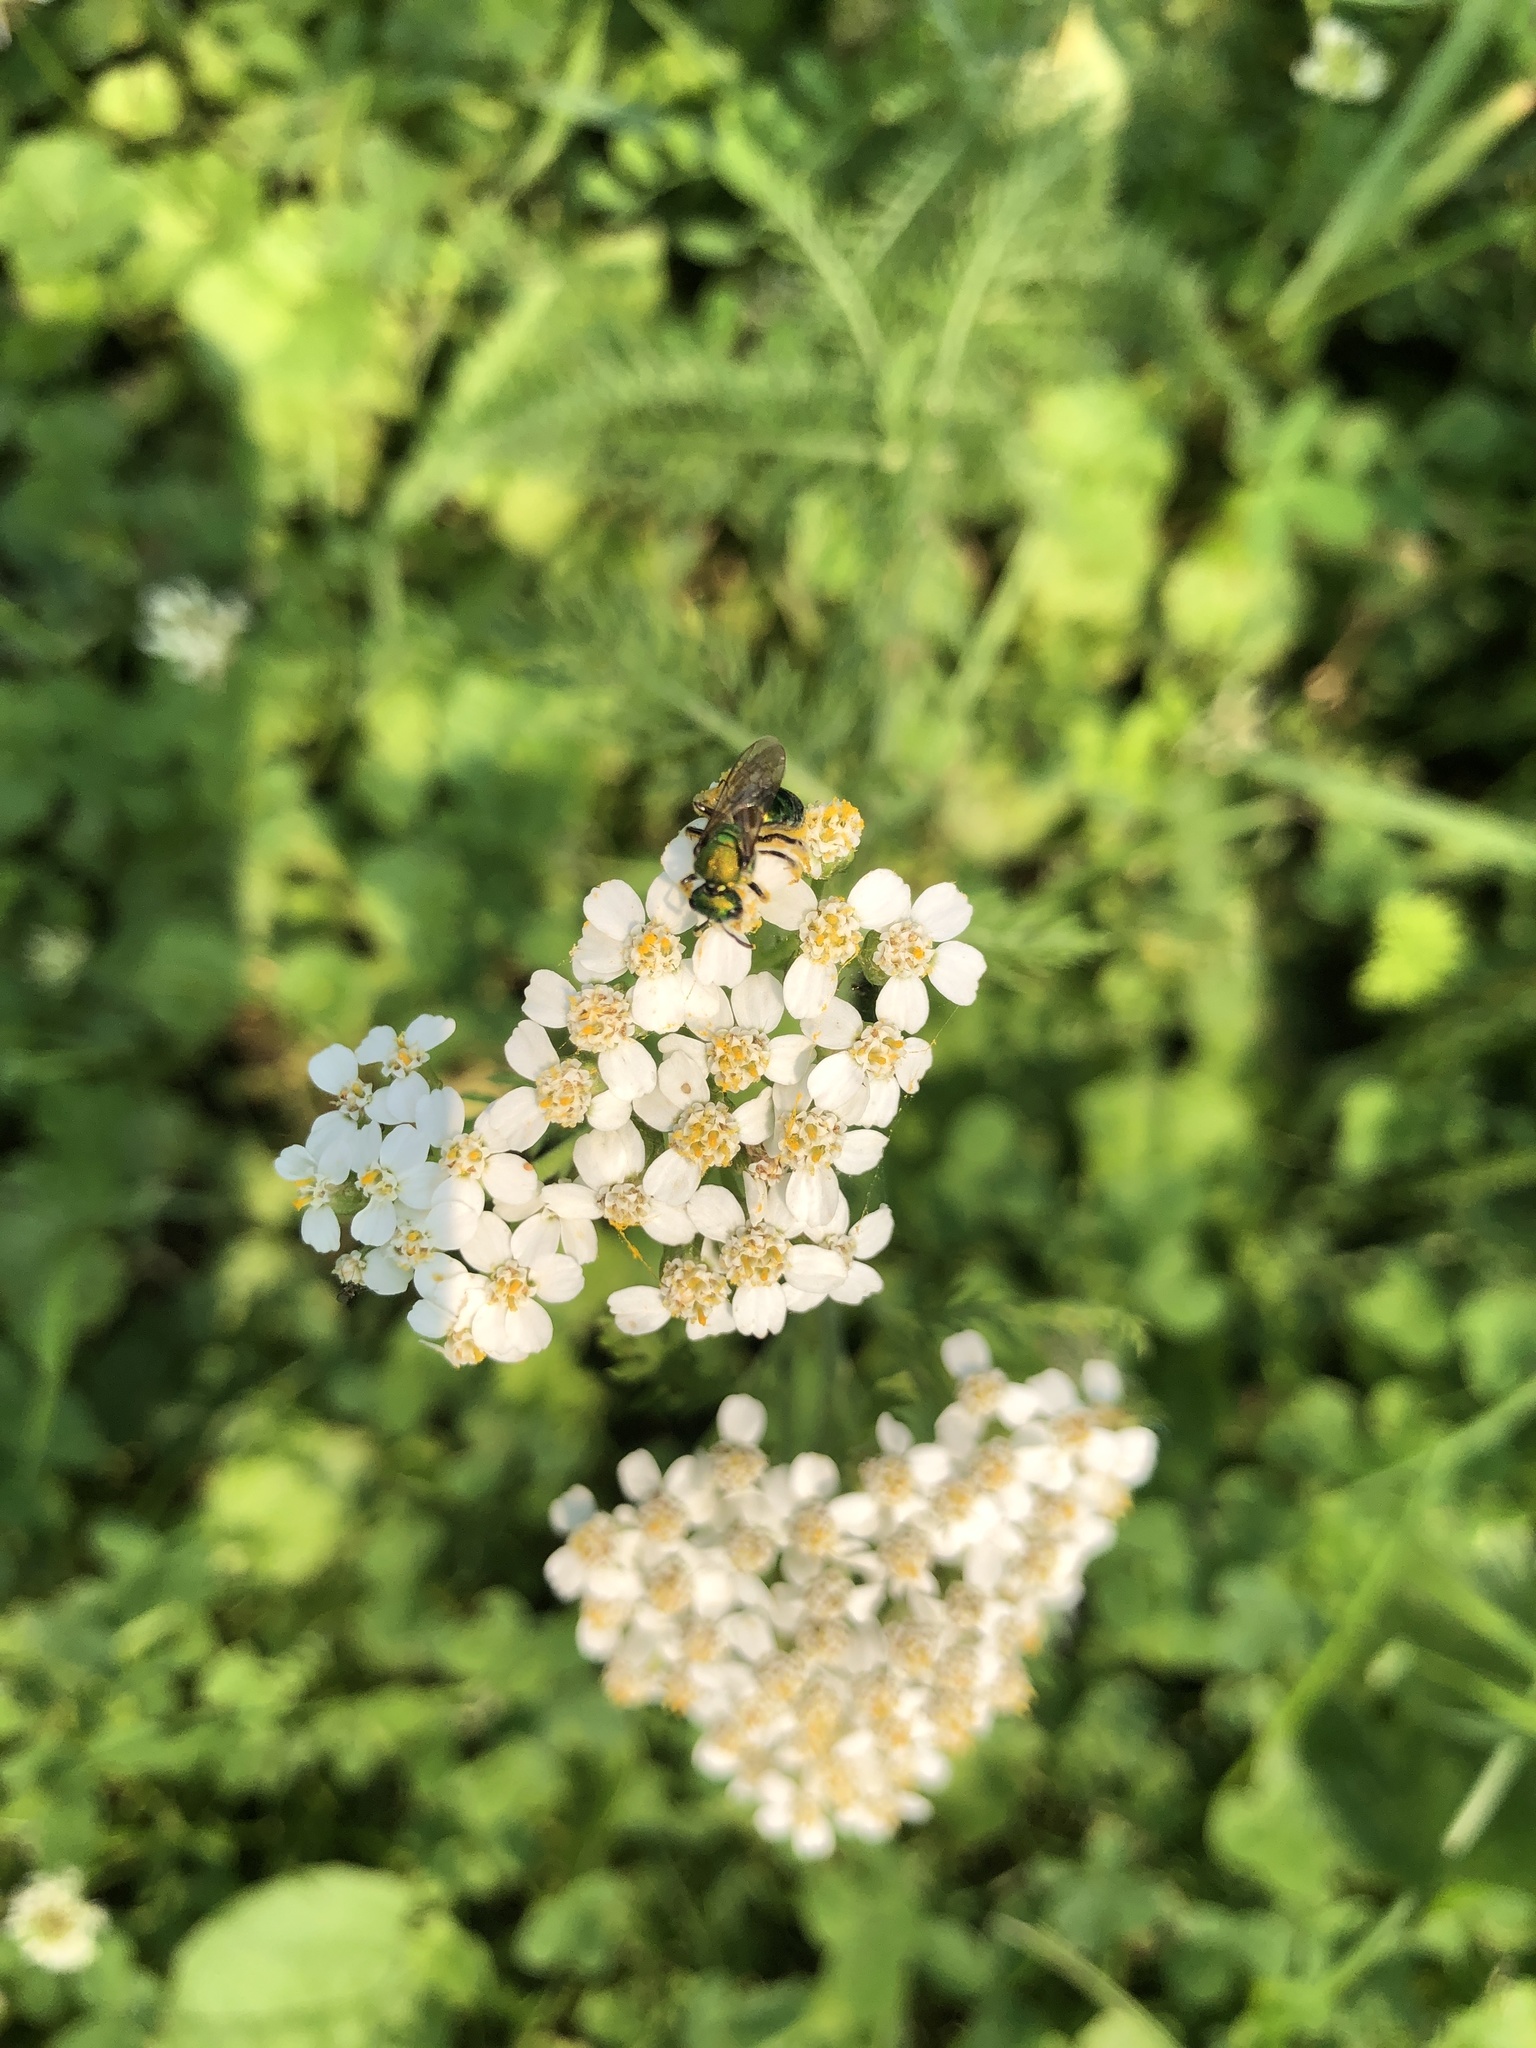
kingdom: Animalia
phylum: Arthropoda
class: Insecta
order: Hymenoptera
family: Halictidae
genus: Augochlora
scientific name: Augochlora pura
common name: Pure green sweat bee
